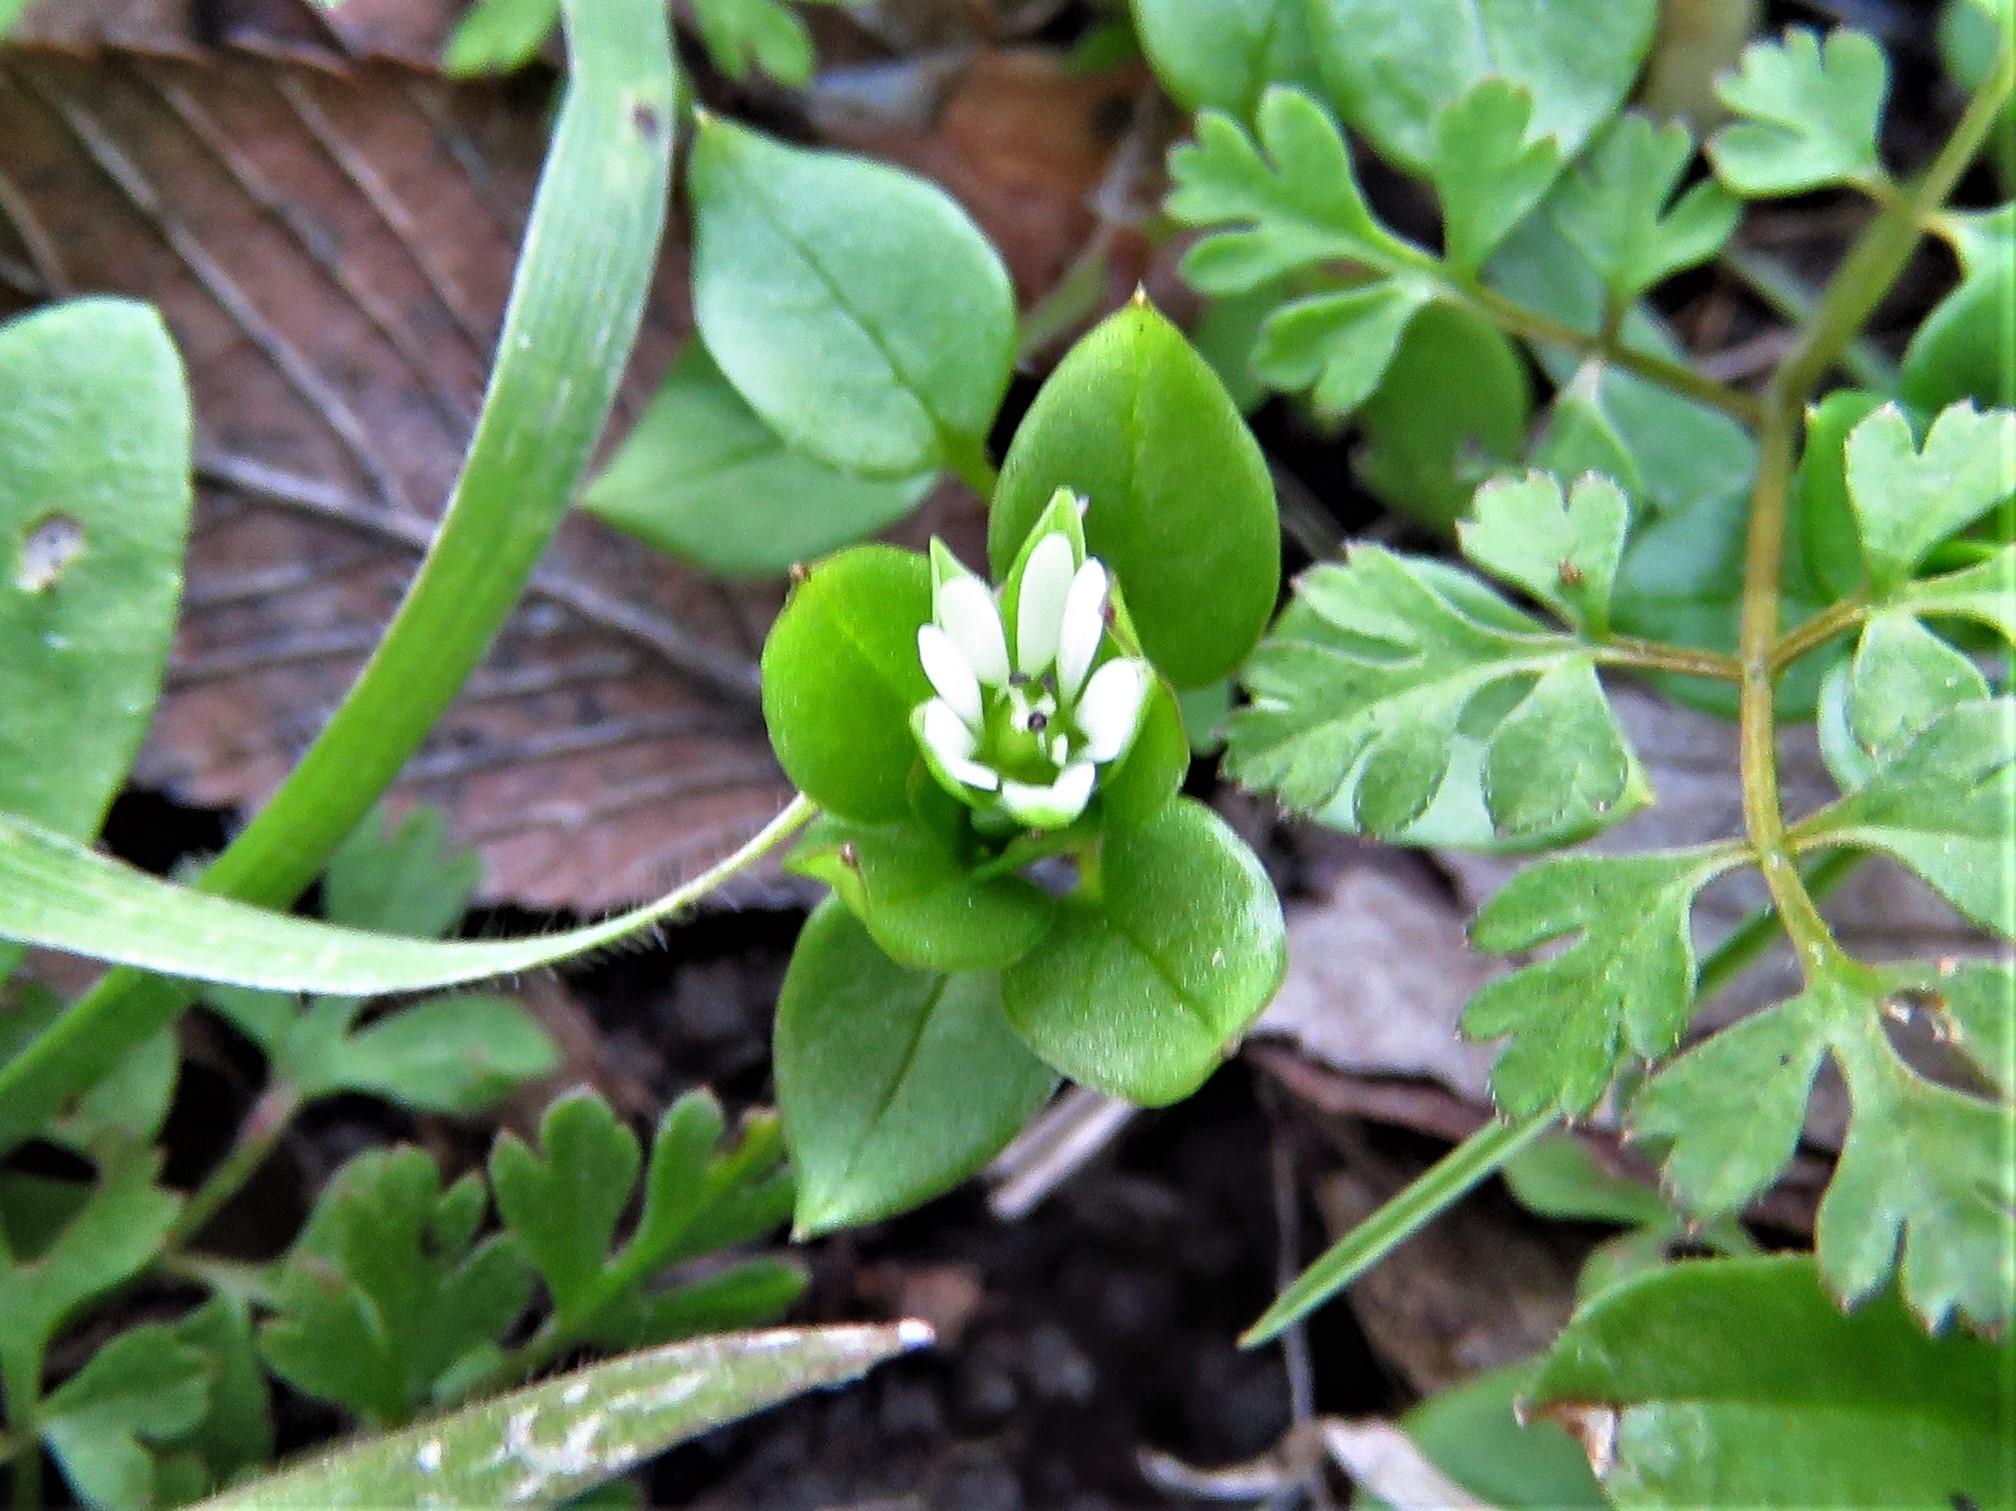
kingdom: Plantae
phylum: Tracheophyta
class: Magnoliopsida
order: Caryophyllales
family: Caryophyllaceae
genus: Stellaria
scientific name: Stellaria media
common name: Common chickweed
